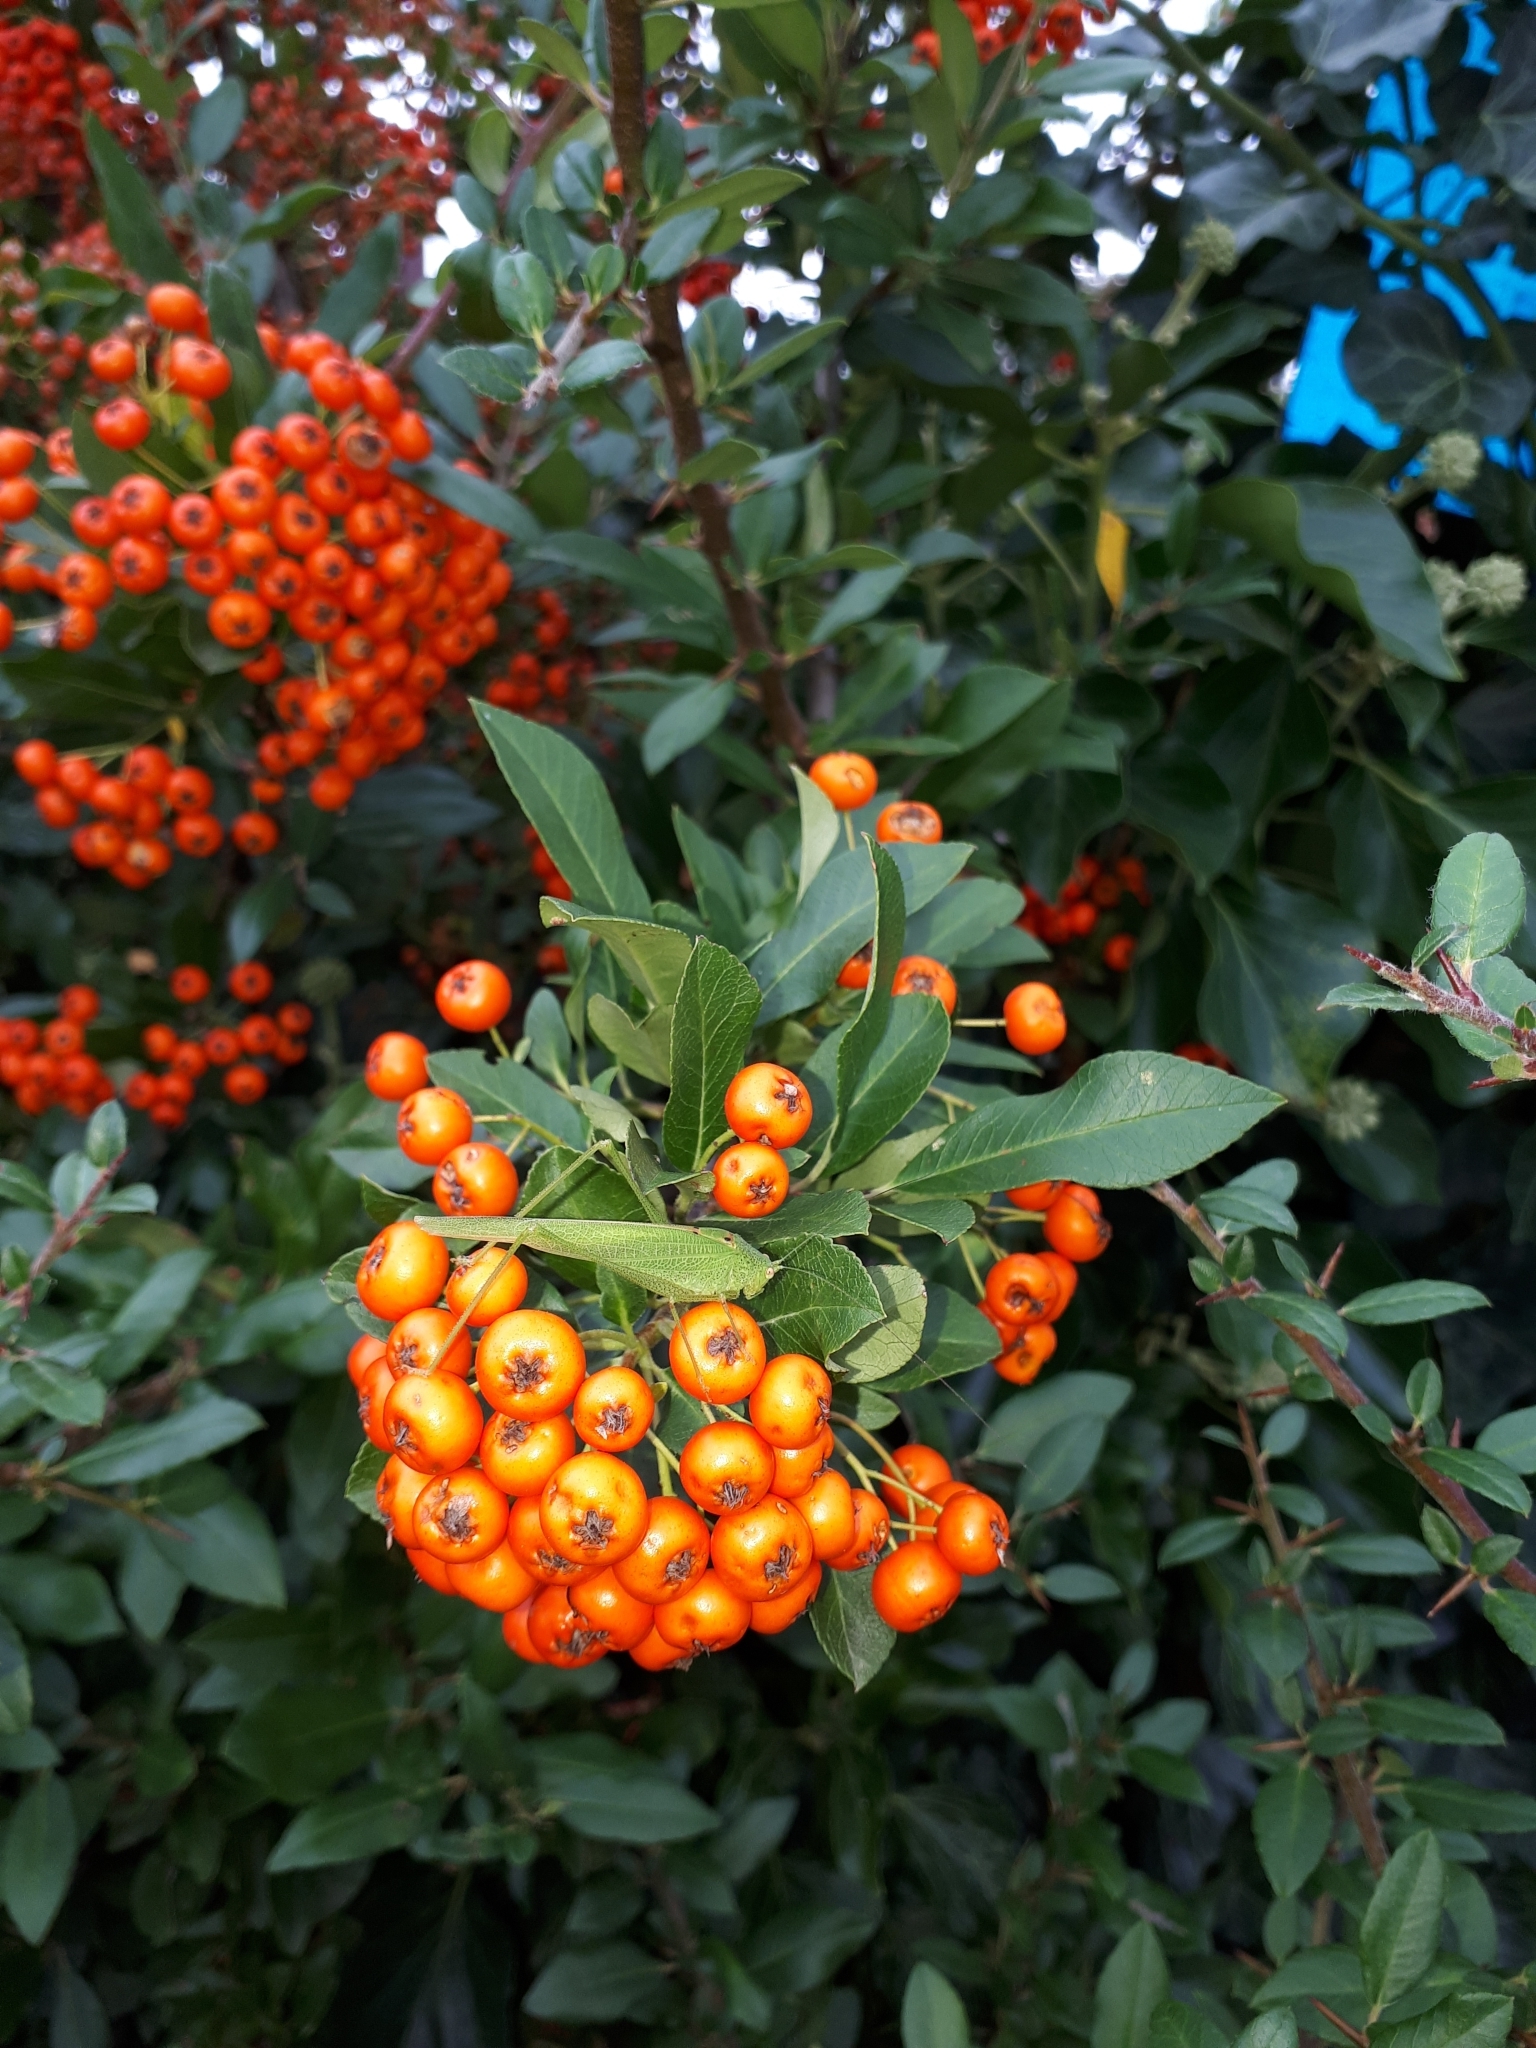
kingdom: Plantae
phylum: Tracheophyta
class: Magnoliopsida
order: Rosales
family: Rosaceae
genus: Pyracantha
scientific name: Pyracantha coccinea
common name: Firethorn
